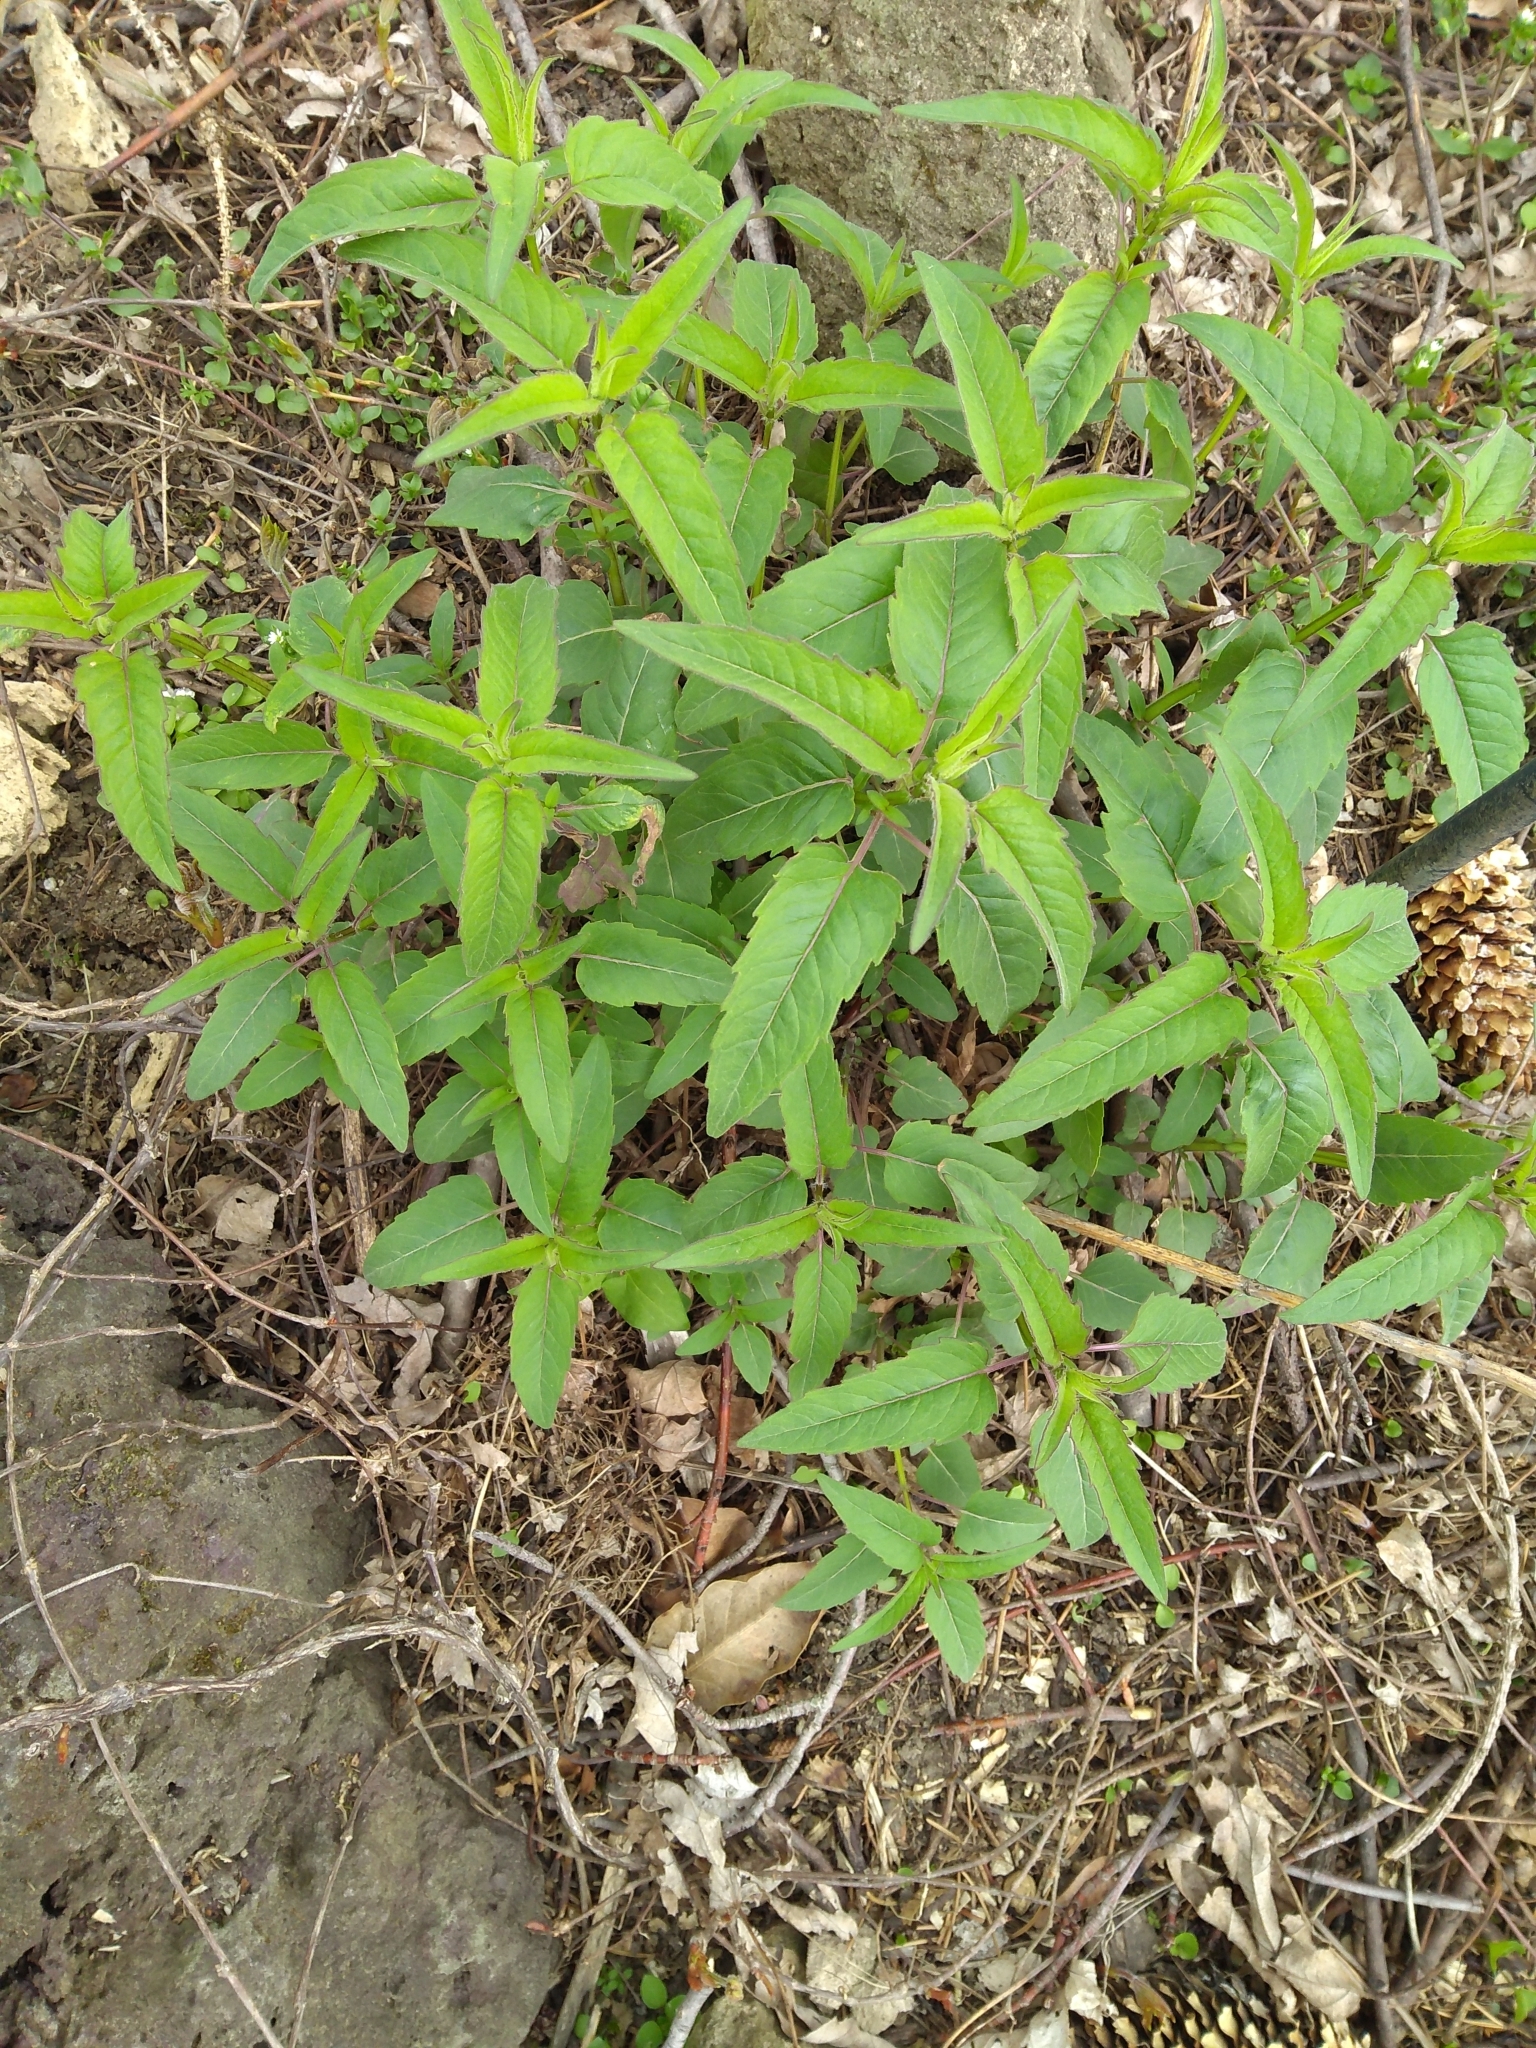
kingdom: Plantae
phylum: Tracheophyta
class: Magnoliopsida
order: Lamiales
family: Lamiaceae
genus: Monarda
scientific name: Monarda fistulosa
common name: Purple beebalm
